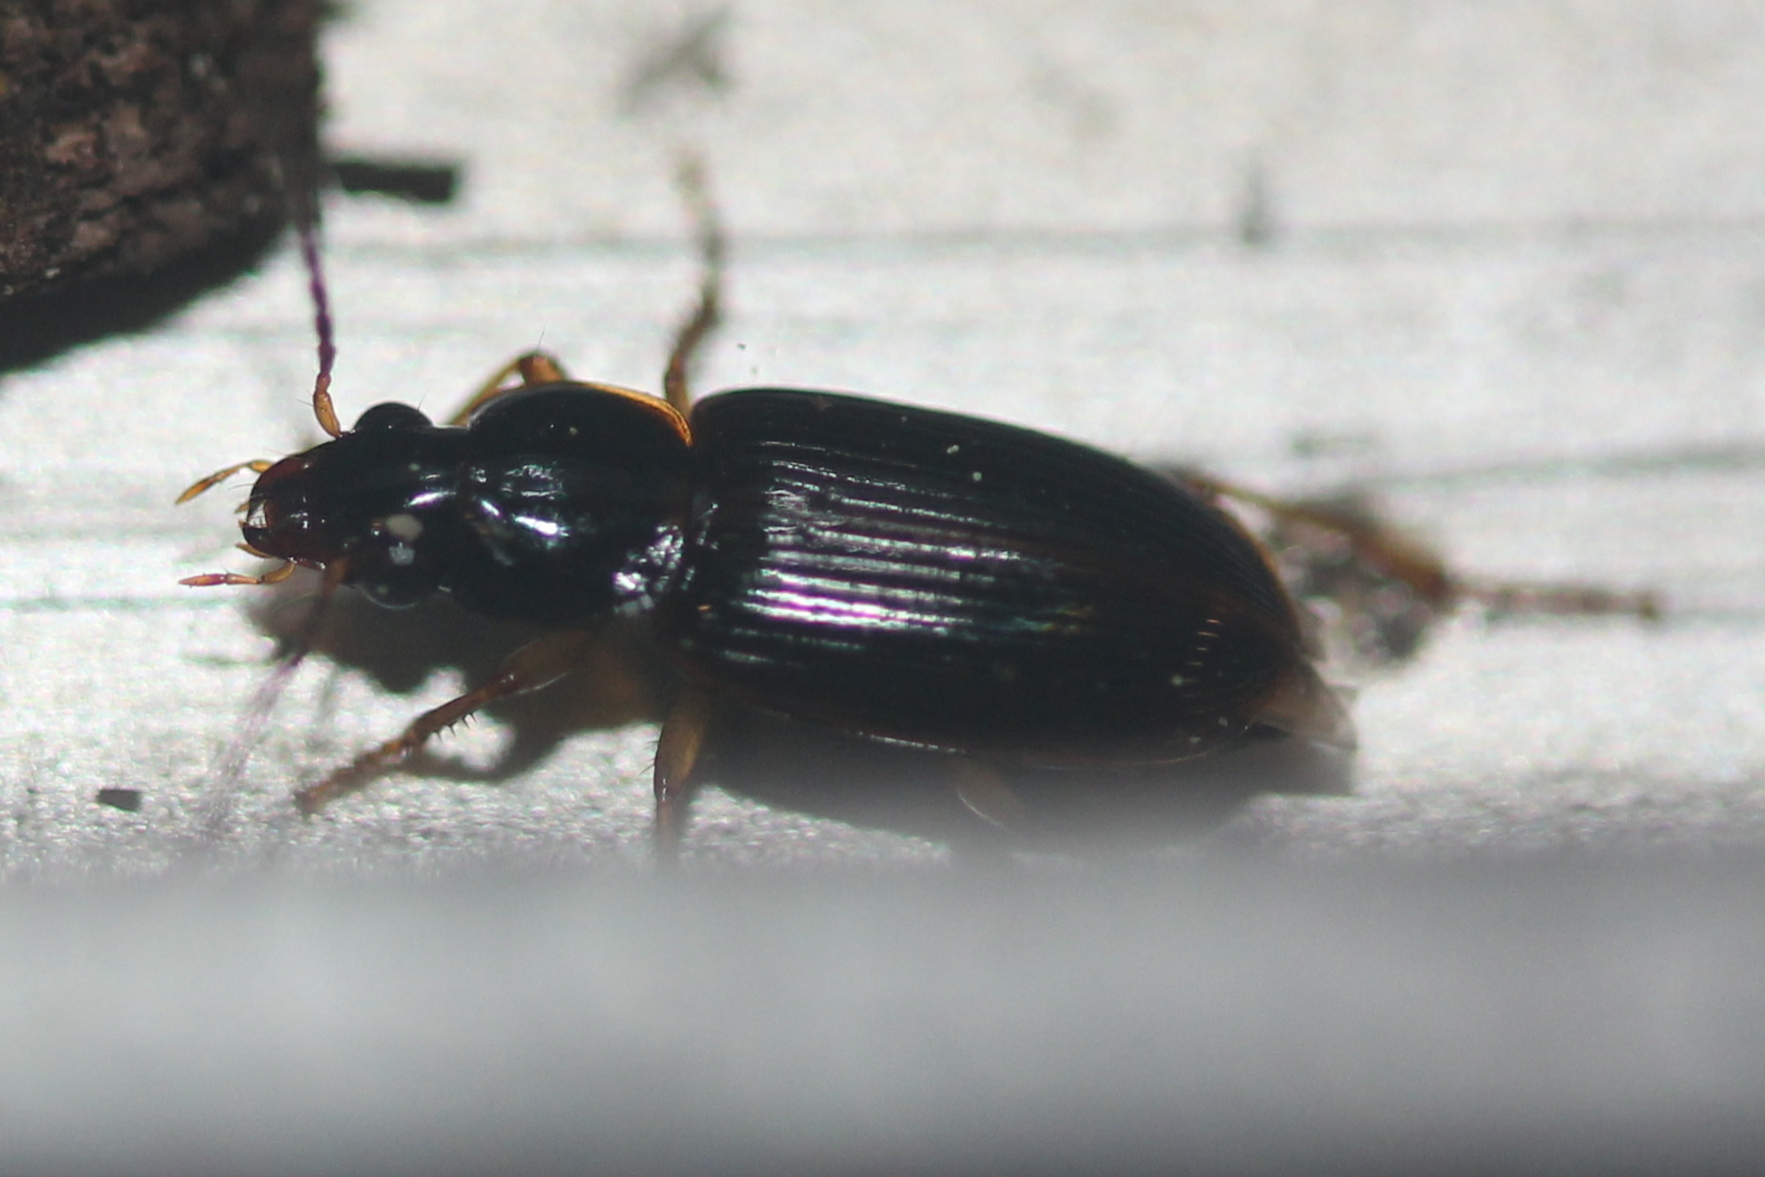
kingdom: Animalia
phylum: Arthropoda
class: Insecta
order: Coleoptera
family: Carabidae
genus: Stenolophus
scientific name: Stenolophus ochropezus
